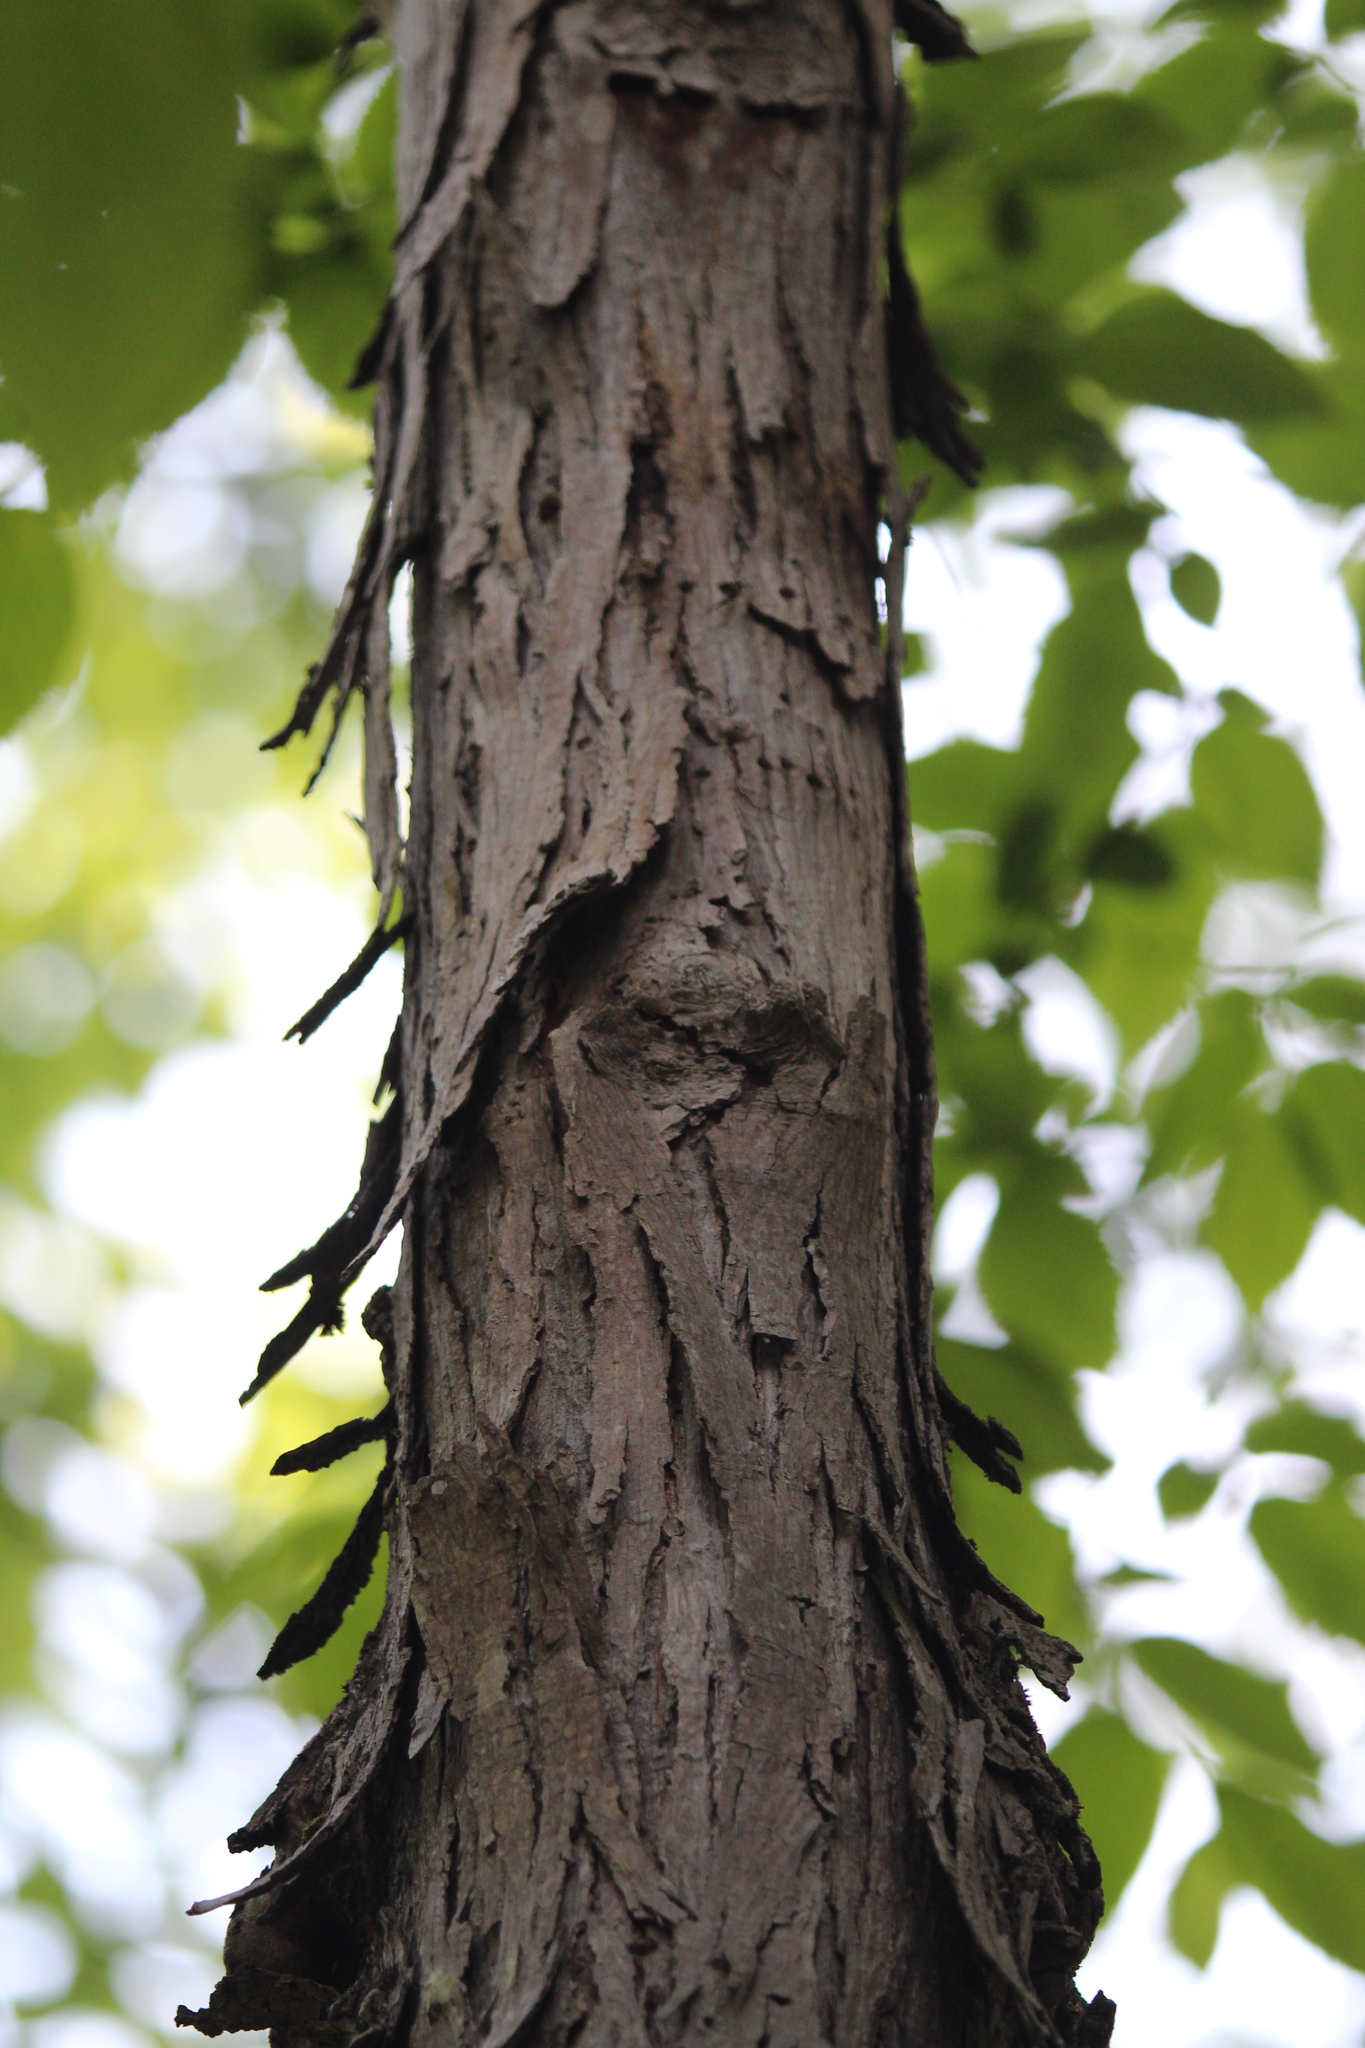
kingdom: Plantae
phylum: Tracheophyta
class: Magnoliopsida
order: Fagales
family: Juglandaceae
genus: Carya
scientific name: Carya ovata
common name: Shagbark hickory
